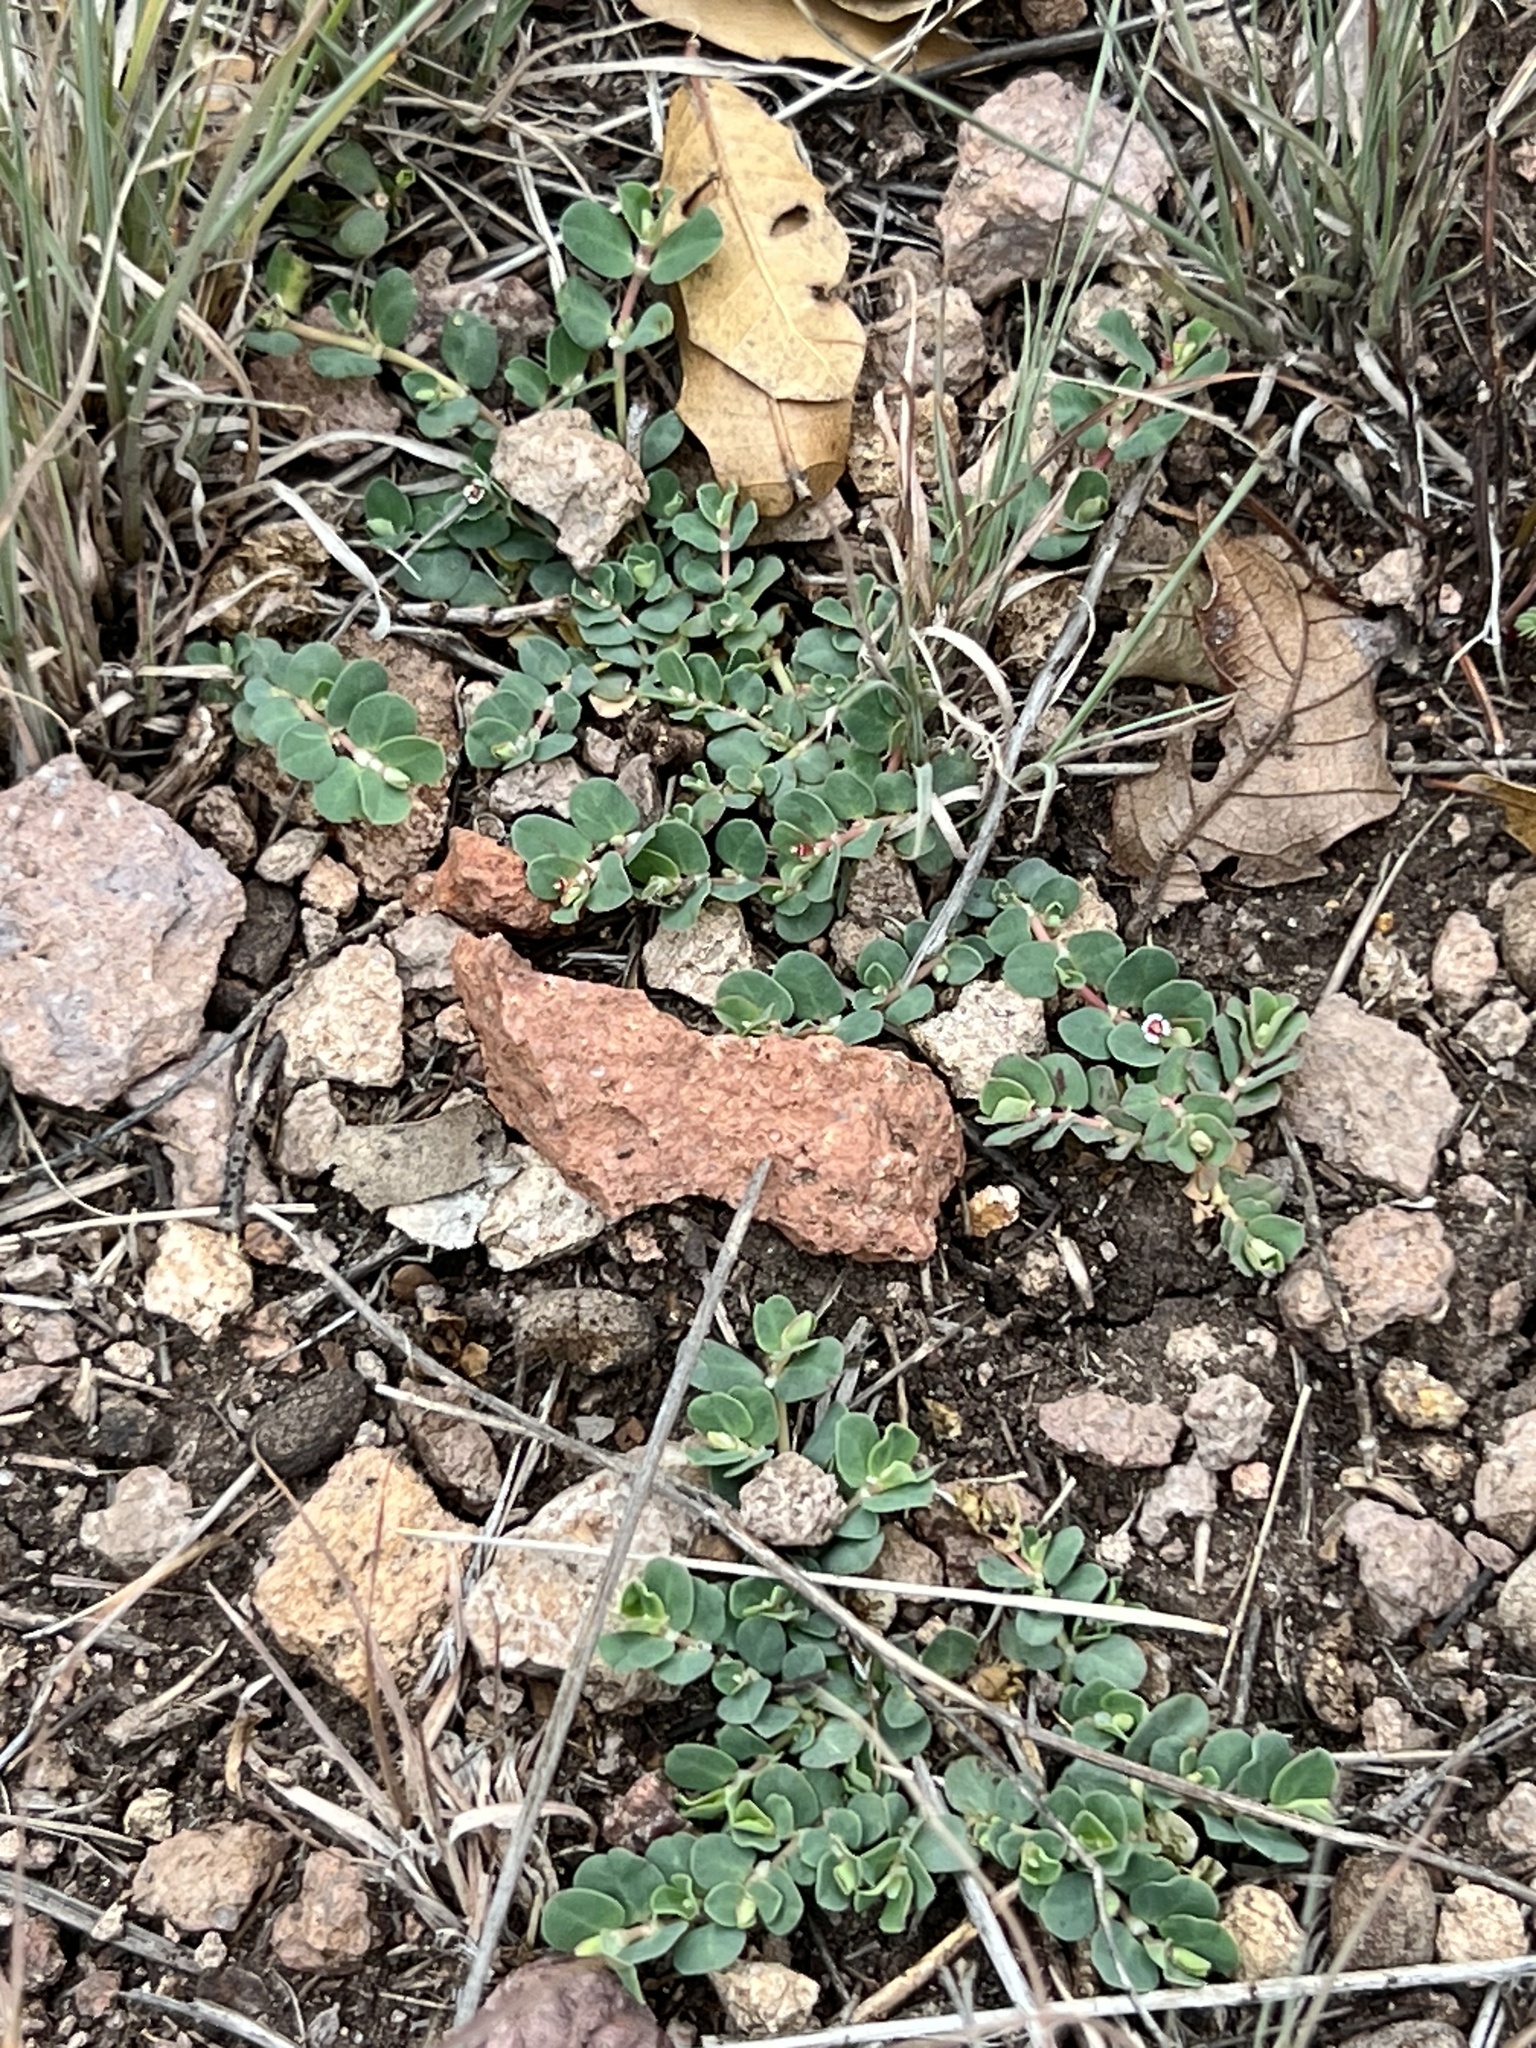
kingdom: Plantae
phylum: Tracheophyta
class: Magnoliopsida
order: Malpighiales
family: Euphorbiaceae
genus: Euphorbia
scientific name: Euphorbia albomarginata
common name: Whitemargin sandmat
